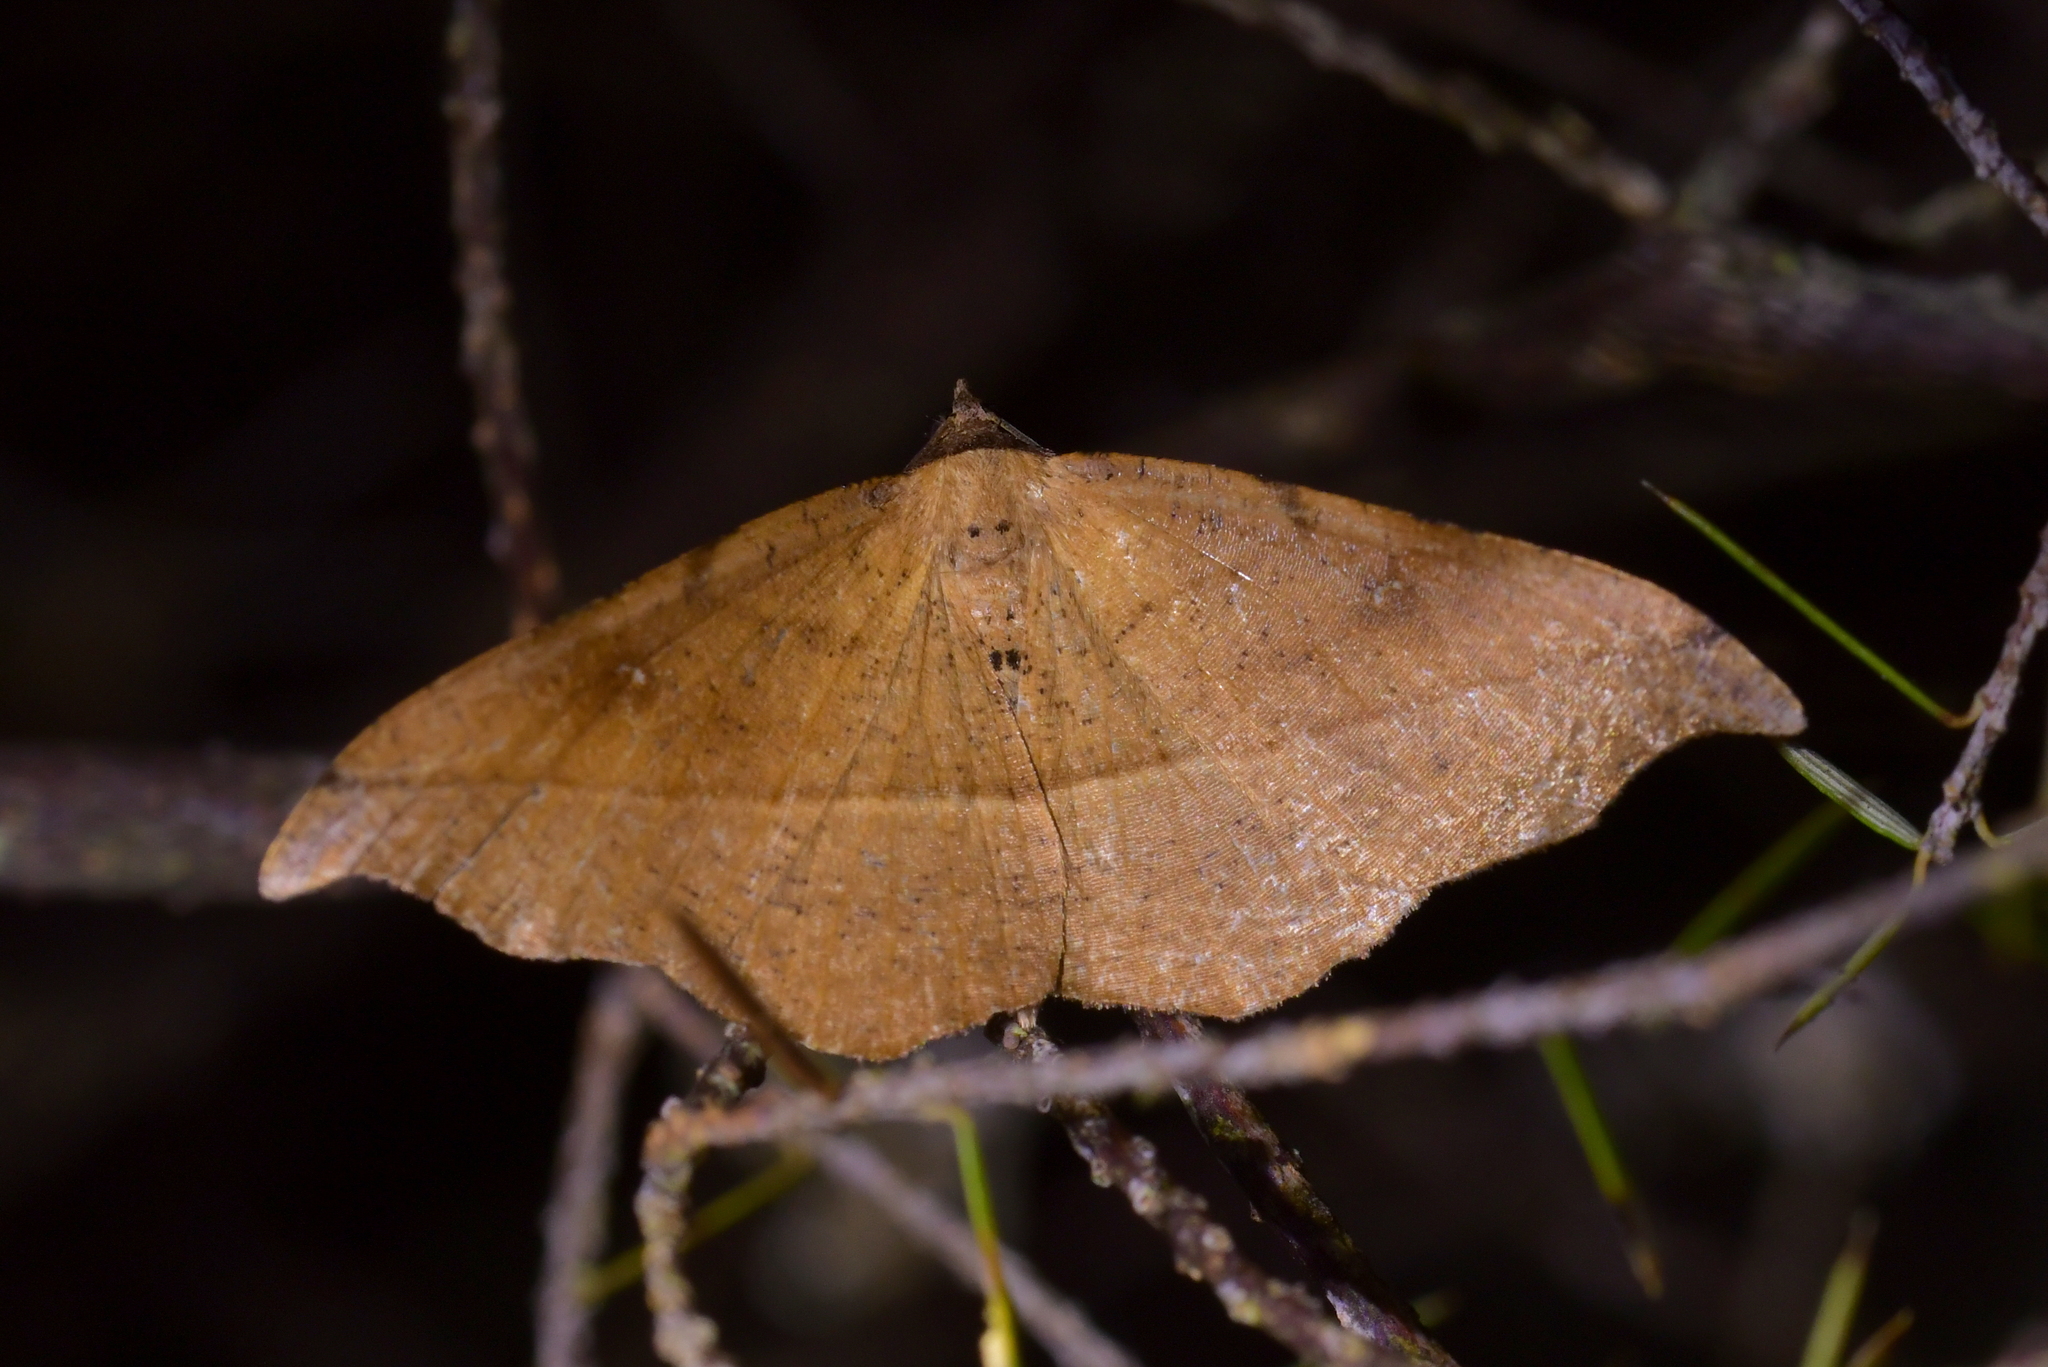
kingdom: Animalia
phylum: Arthropoda
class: Insecta
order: Lepidoptera
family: Geometridae
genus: Sarisa
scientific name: Sarisa muriferata
